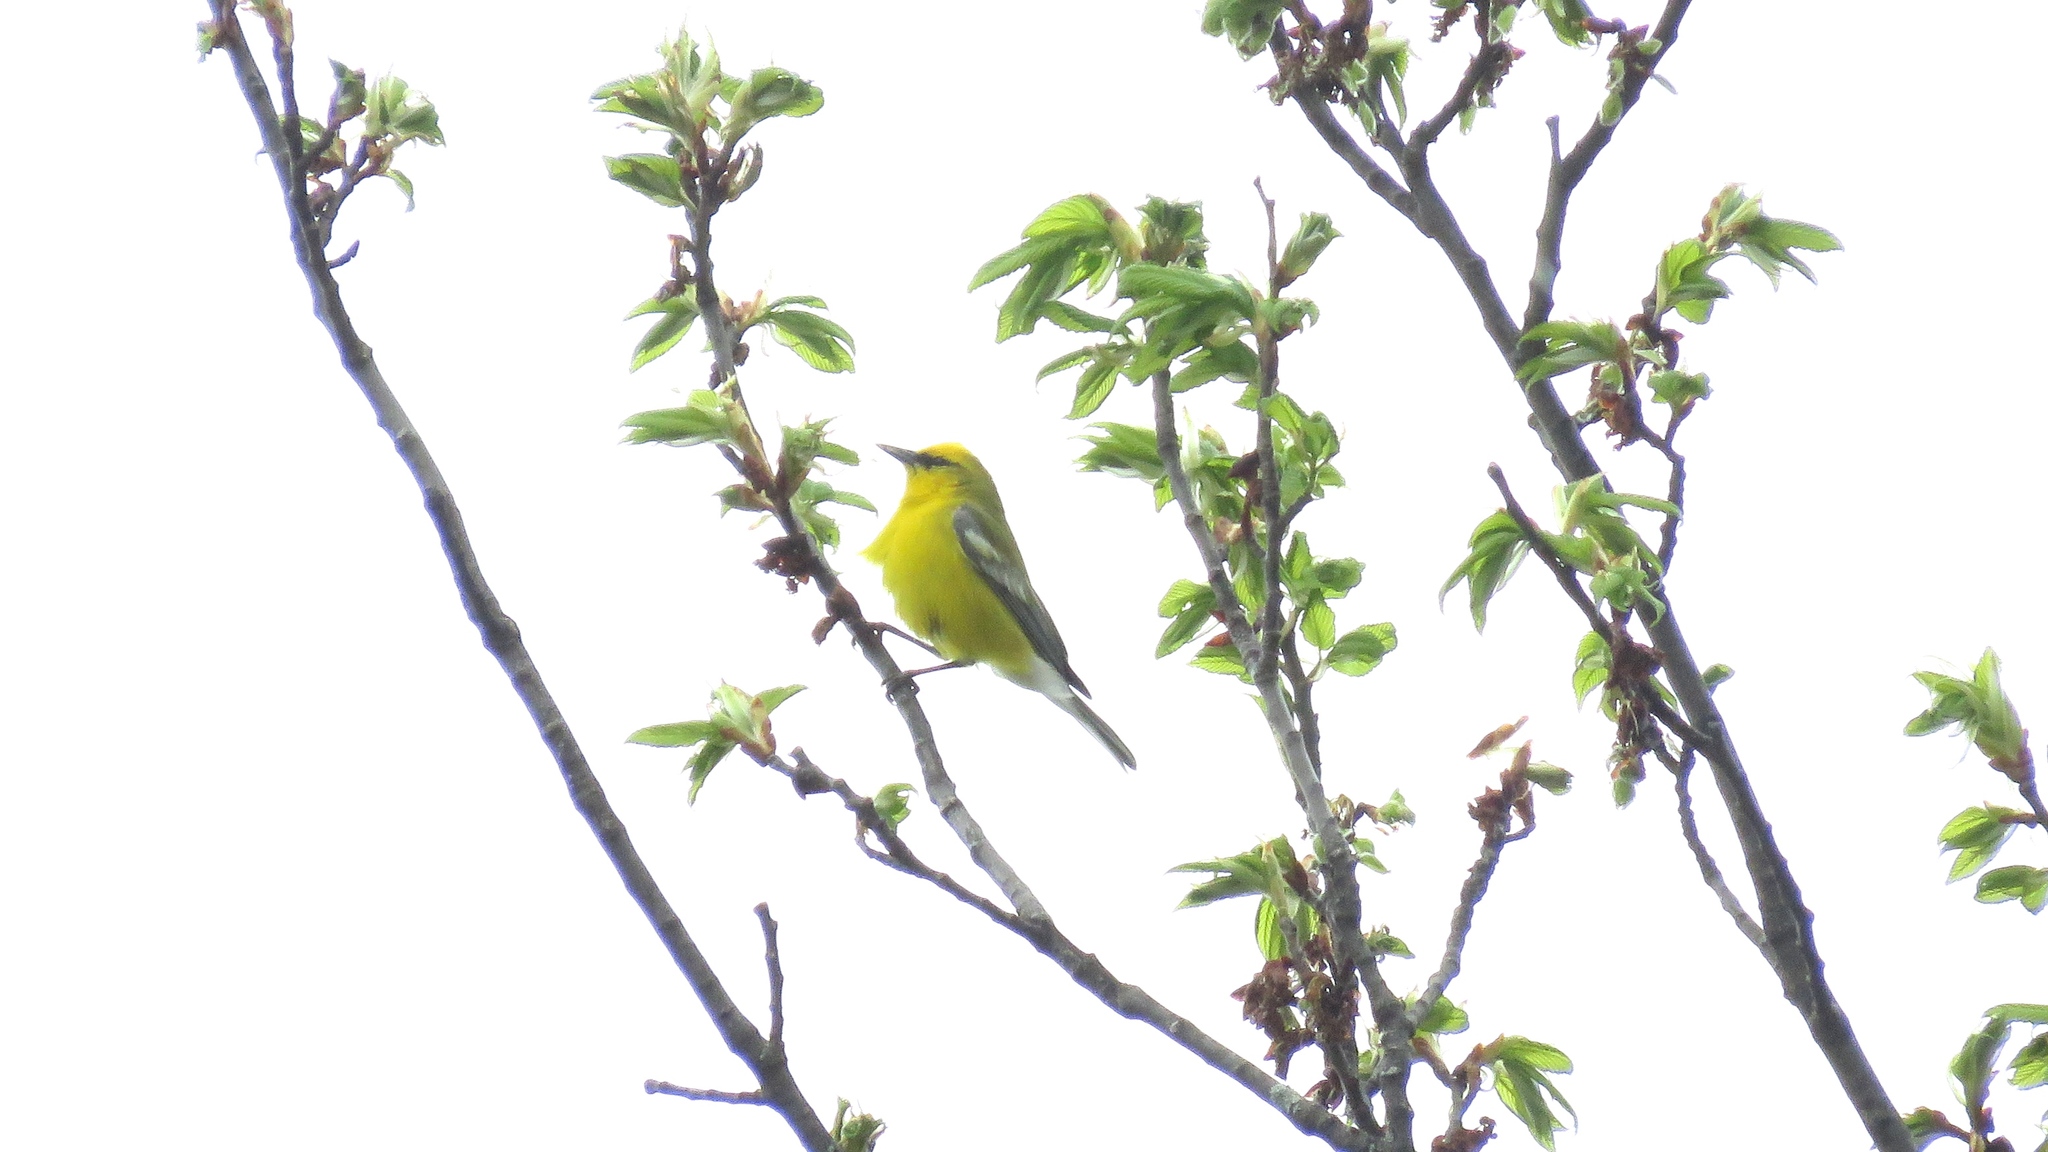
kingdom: Animalia
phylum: Chordata
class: Aves
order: Passeriformes
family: Parulidae
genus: Vermivora
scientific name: Vermivora cyanoptera
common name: Blue-winged warbler
